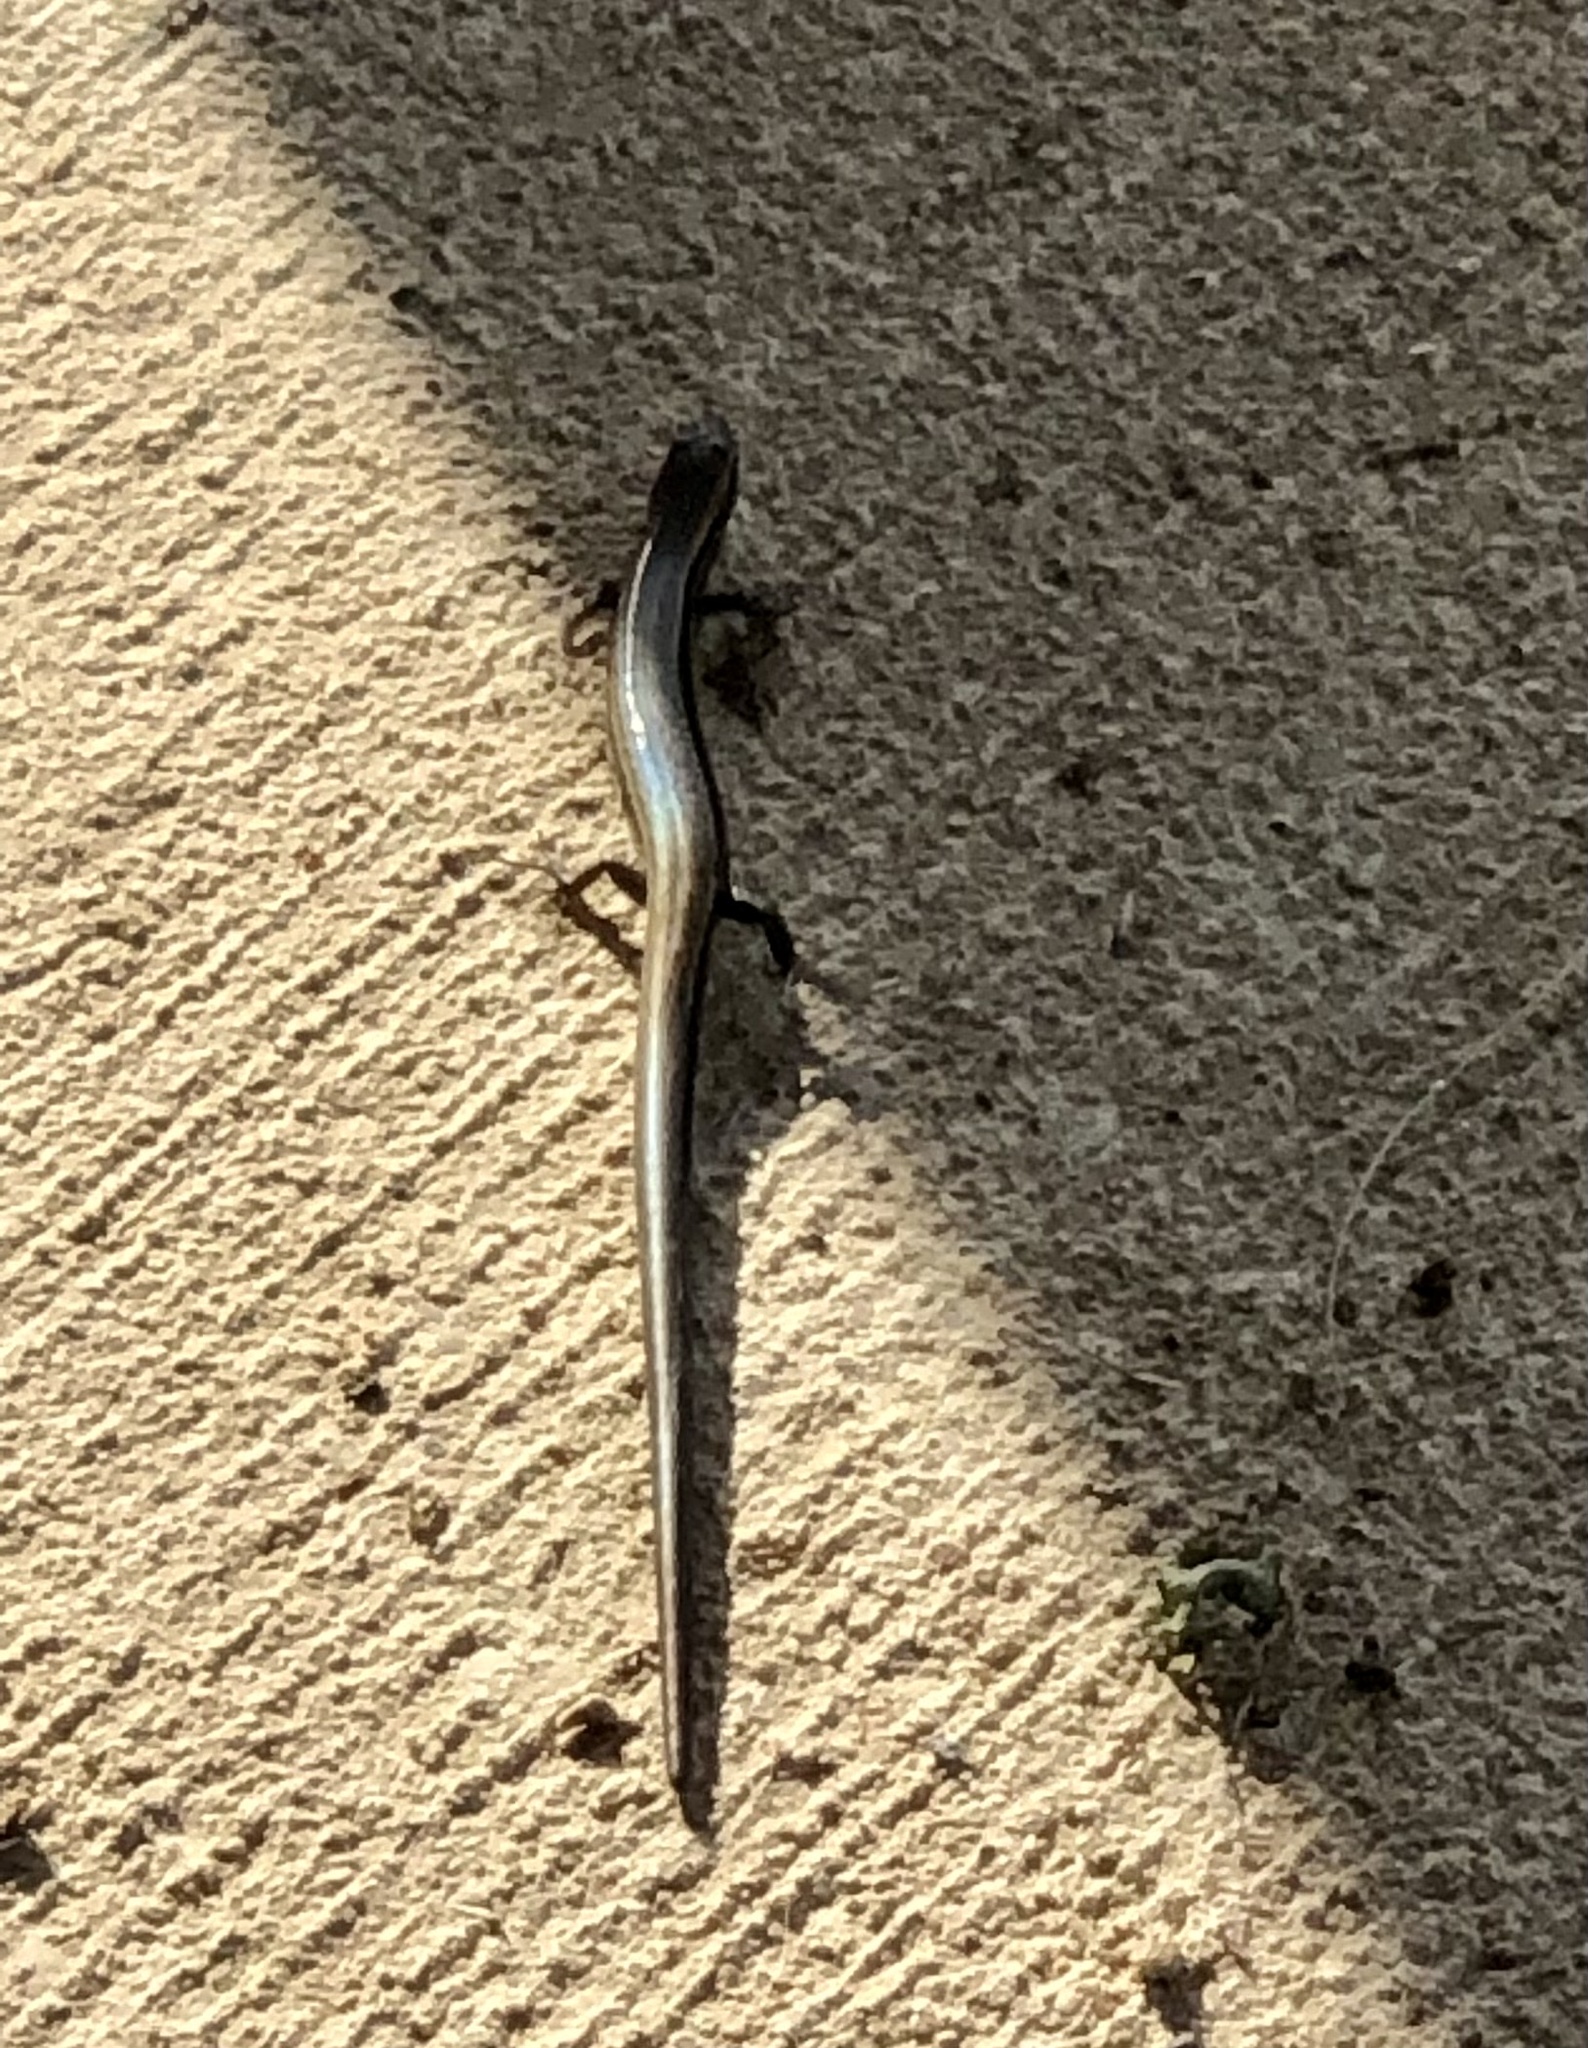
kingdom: Animalia
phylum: Chordata
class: Squamata
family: Scincidae
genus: Scincella
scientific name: Scincella lateralis
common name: Ground skink
